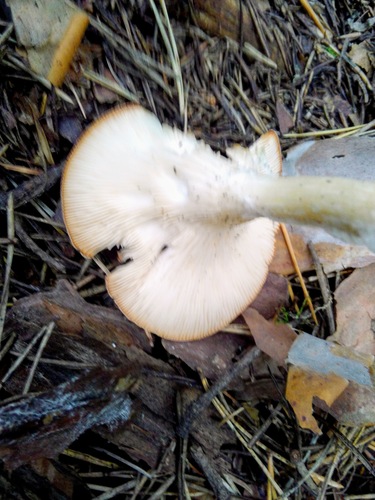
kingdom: Fungi
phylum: Basidiomycota
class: Agaricomycetes
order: Agaricales
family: Tricholomataceae
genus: Infundibulicybe
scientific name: Infundibulicybe gibba
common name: Common funnel
